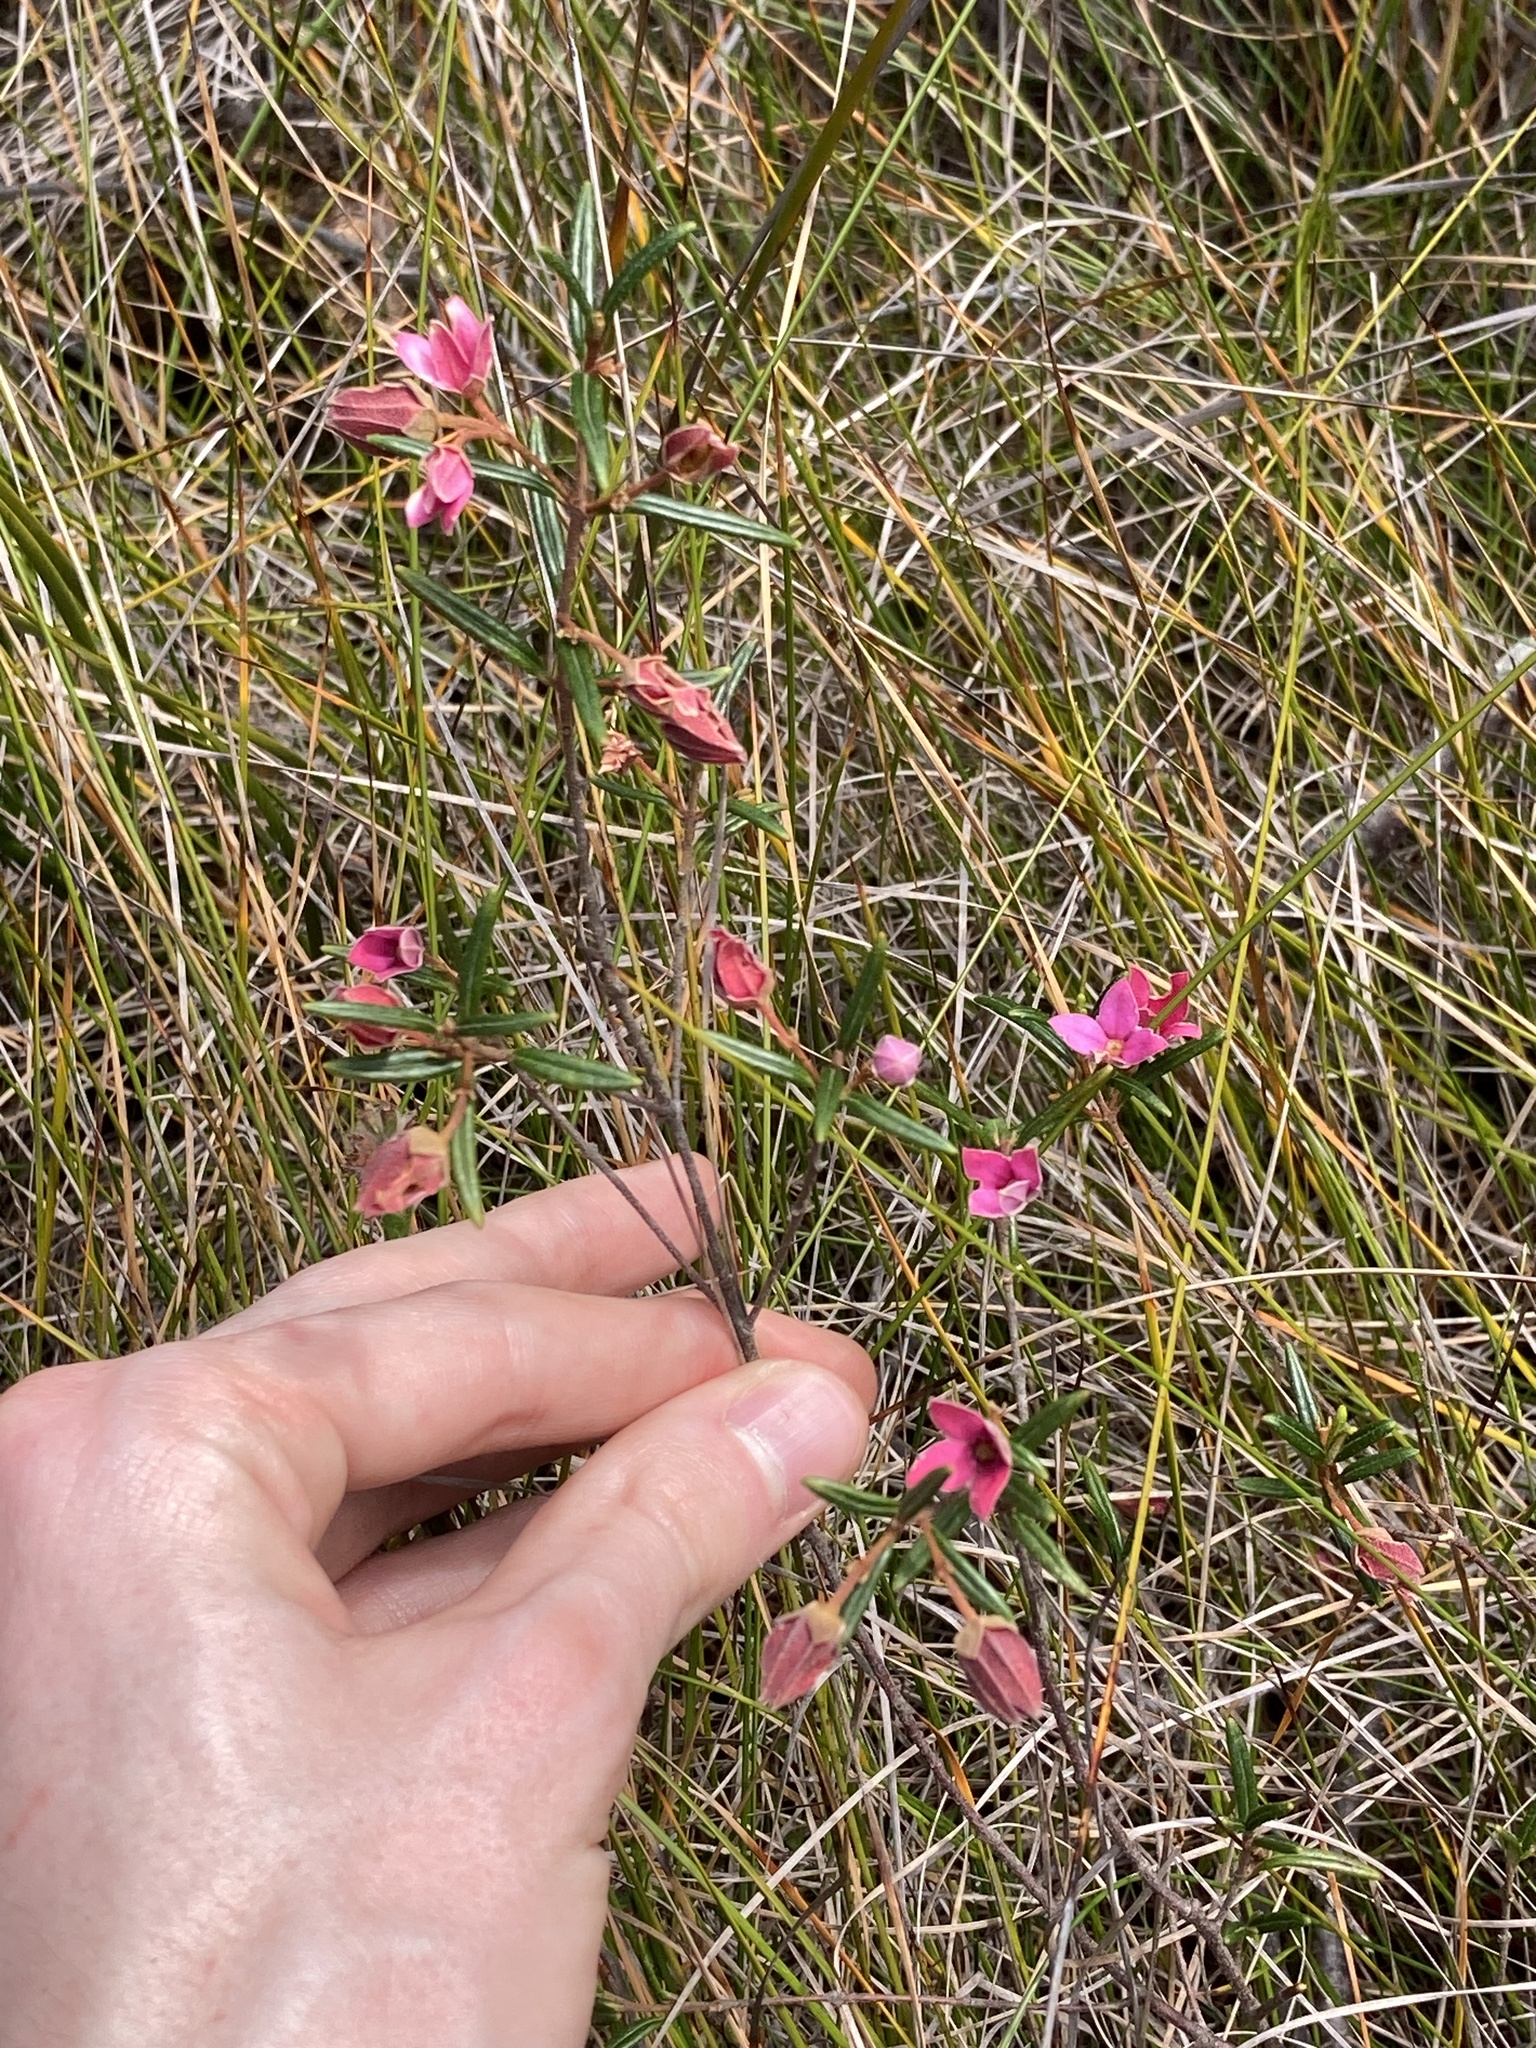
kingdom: Plantae
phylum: Tracheophyta
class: Magnoliopsida
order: Sapindales
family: Rutaceae
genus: Boronia
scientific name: Boronia ledifolia
